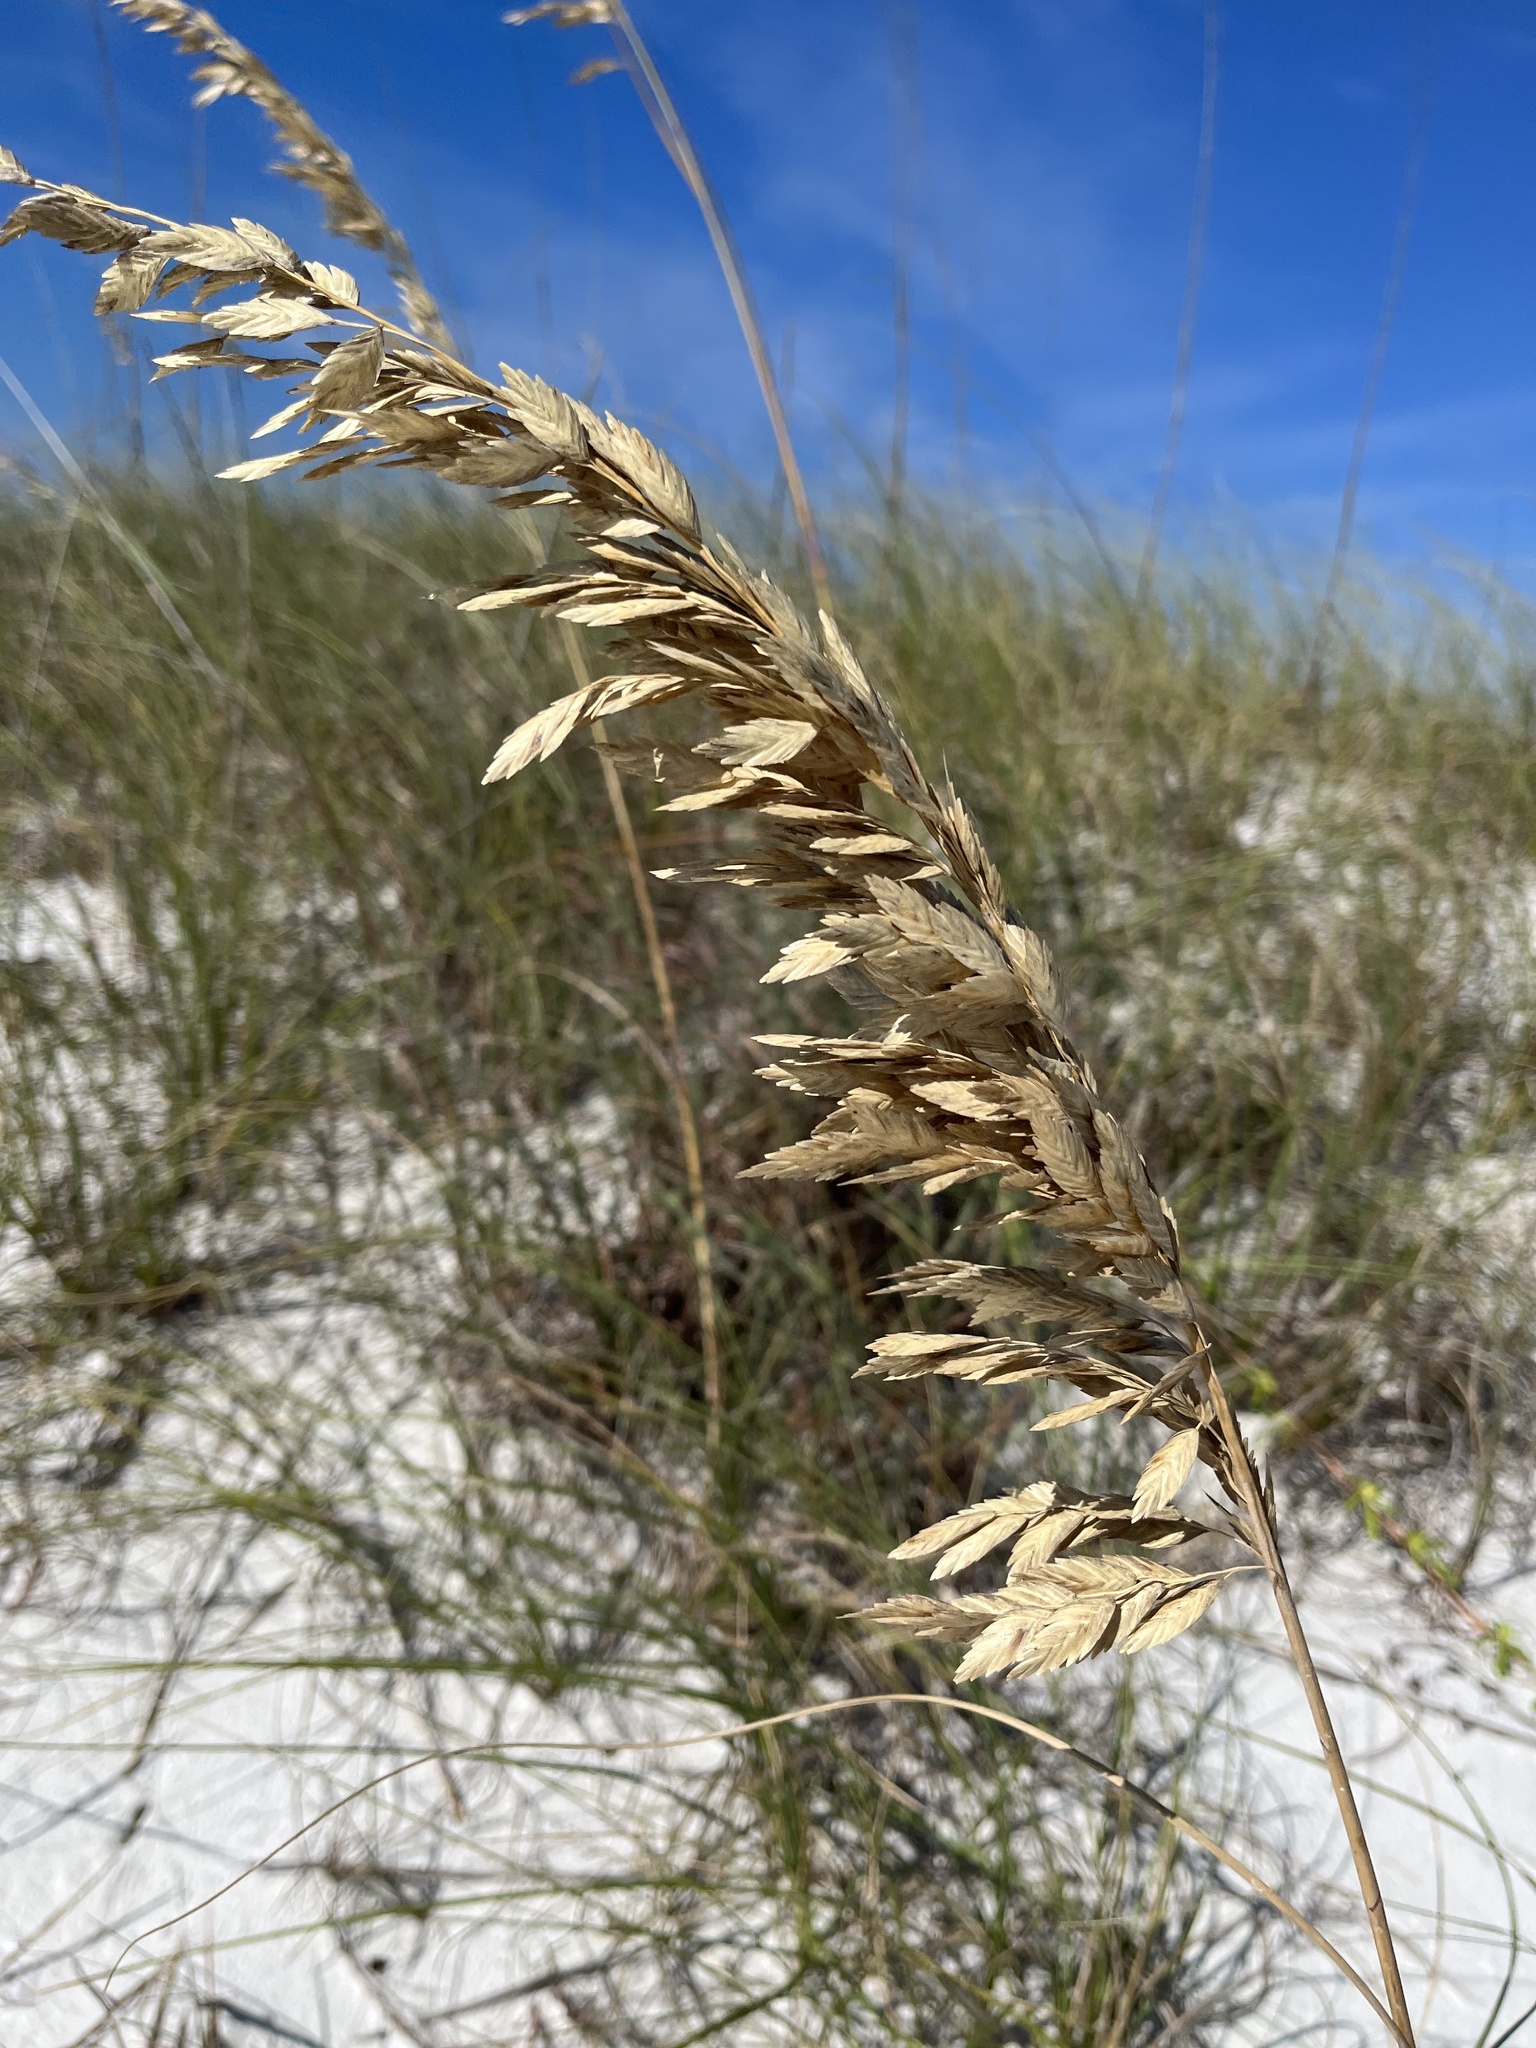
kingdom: Plantae
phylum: Tracheophyta
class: Liliopsida
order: Poales
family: Poaceae
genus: Uniola
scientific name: Uniola paniculata
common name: Seaside-oats
